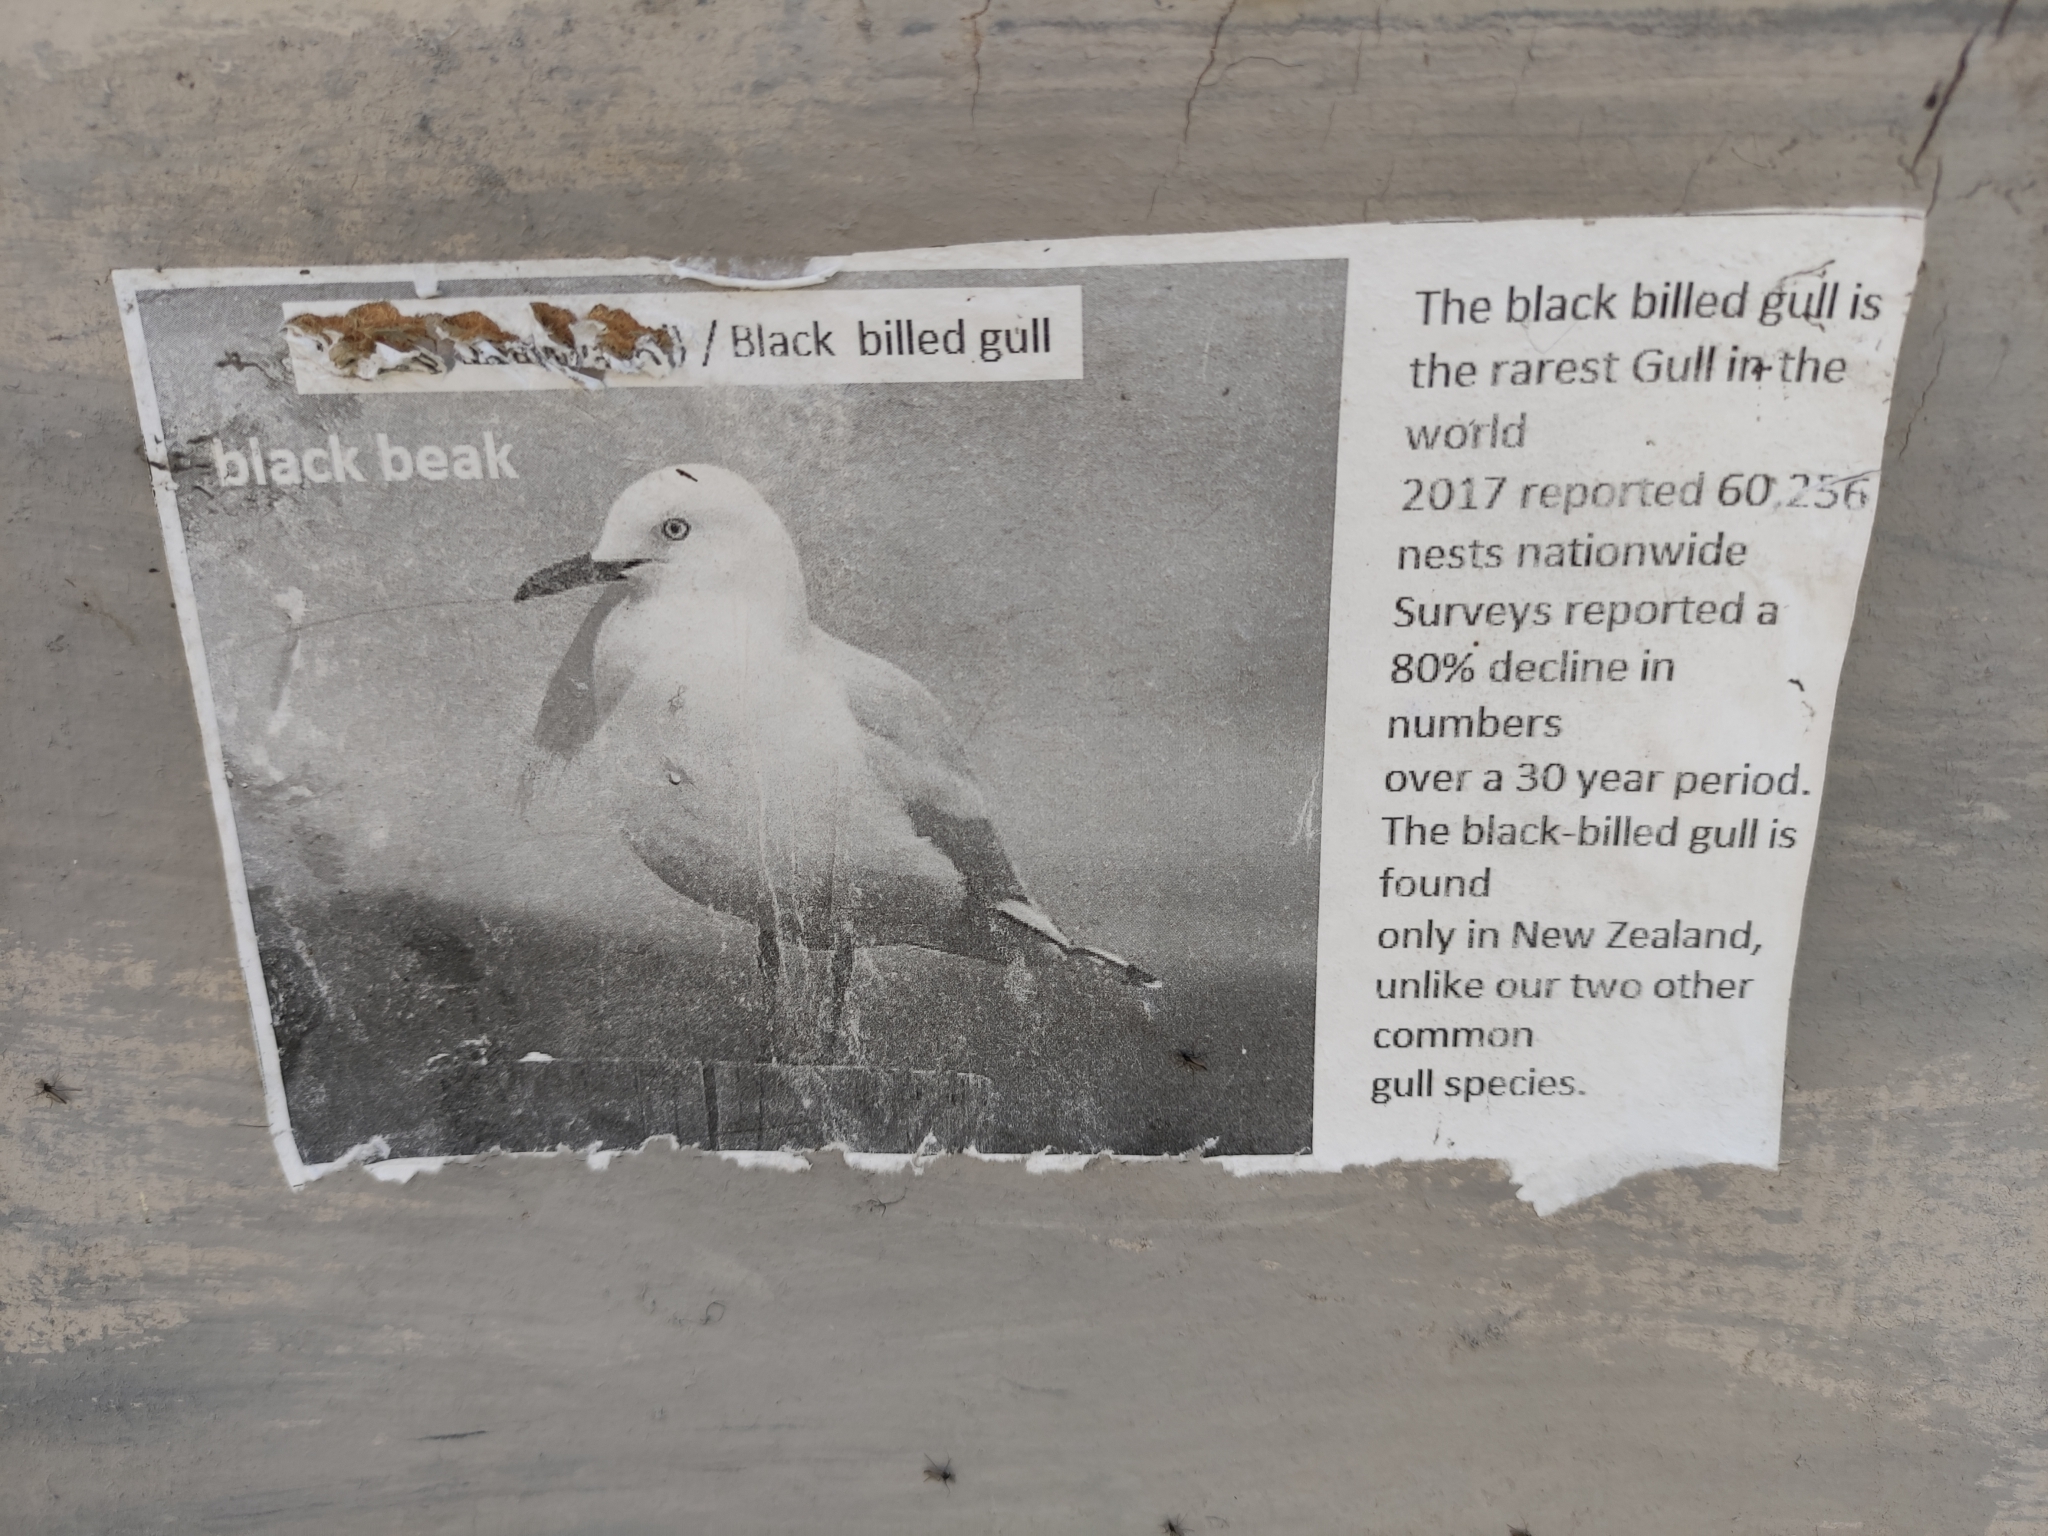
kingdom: Animalia
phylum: Chordata
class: Aves
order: Charadriiformes
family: Laridae
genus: Chroicocephalus
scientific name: Chroicocephalus bulleri
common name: Black-billed gull
